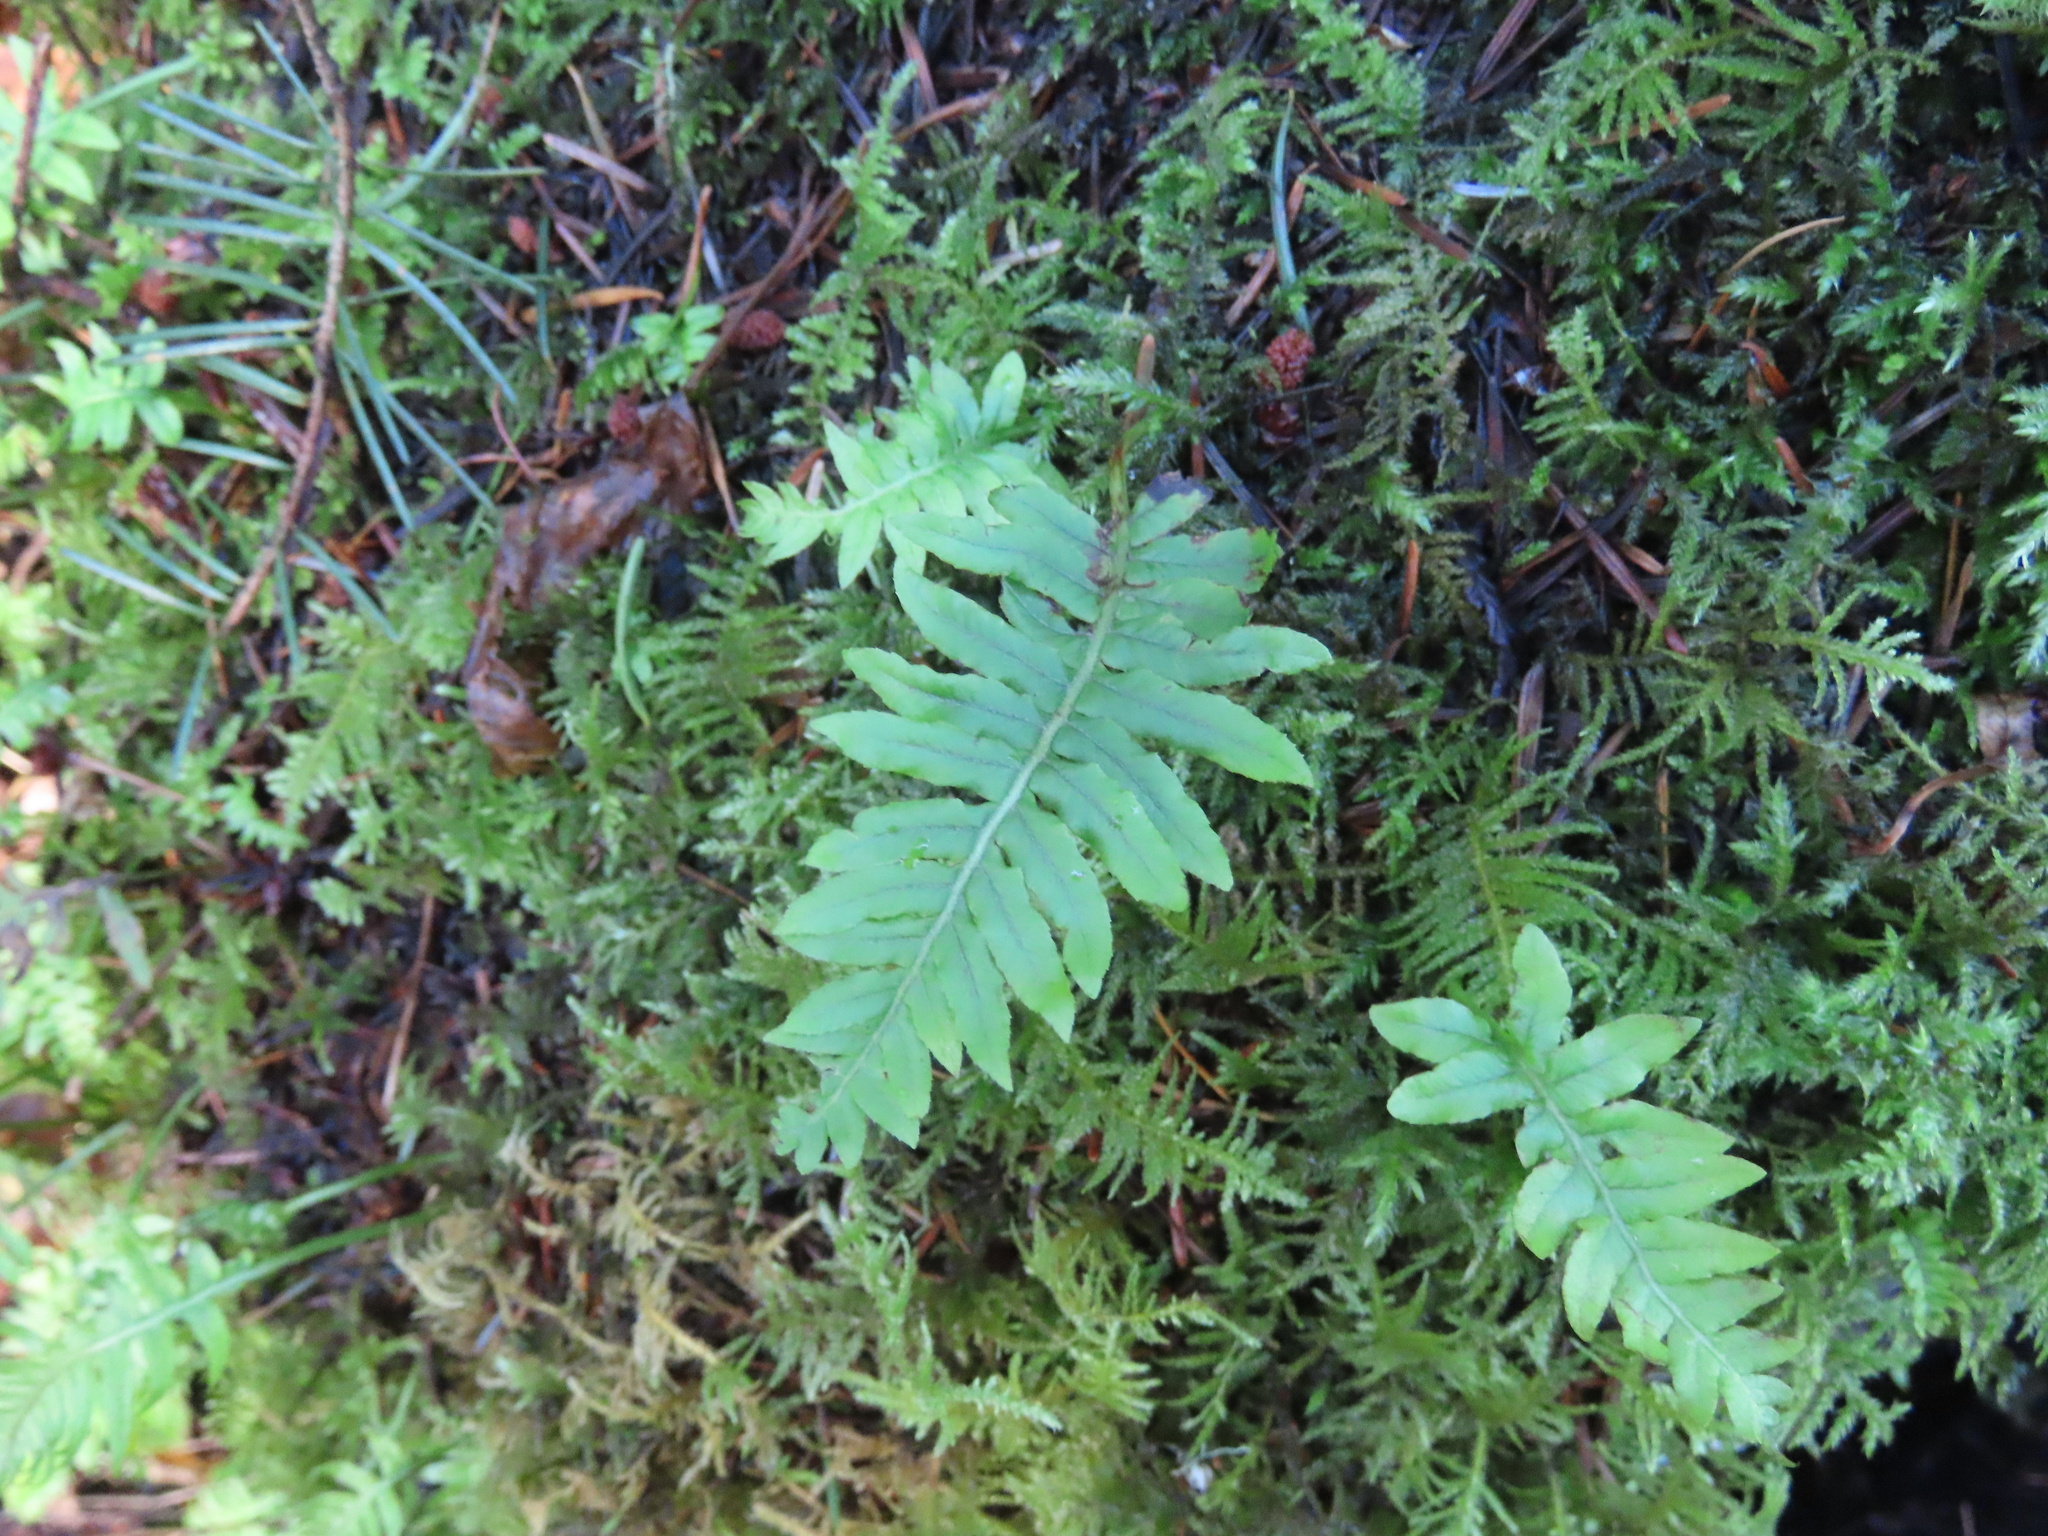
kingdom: Plantae
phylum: Tracheophyta
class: Polypodiopsida
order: Polypodiales
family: Polypodiaceae
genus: Polypodium
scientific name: Polypodium glycyrrhiza
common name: Licorice fern
